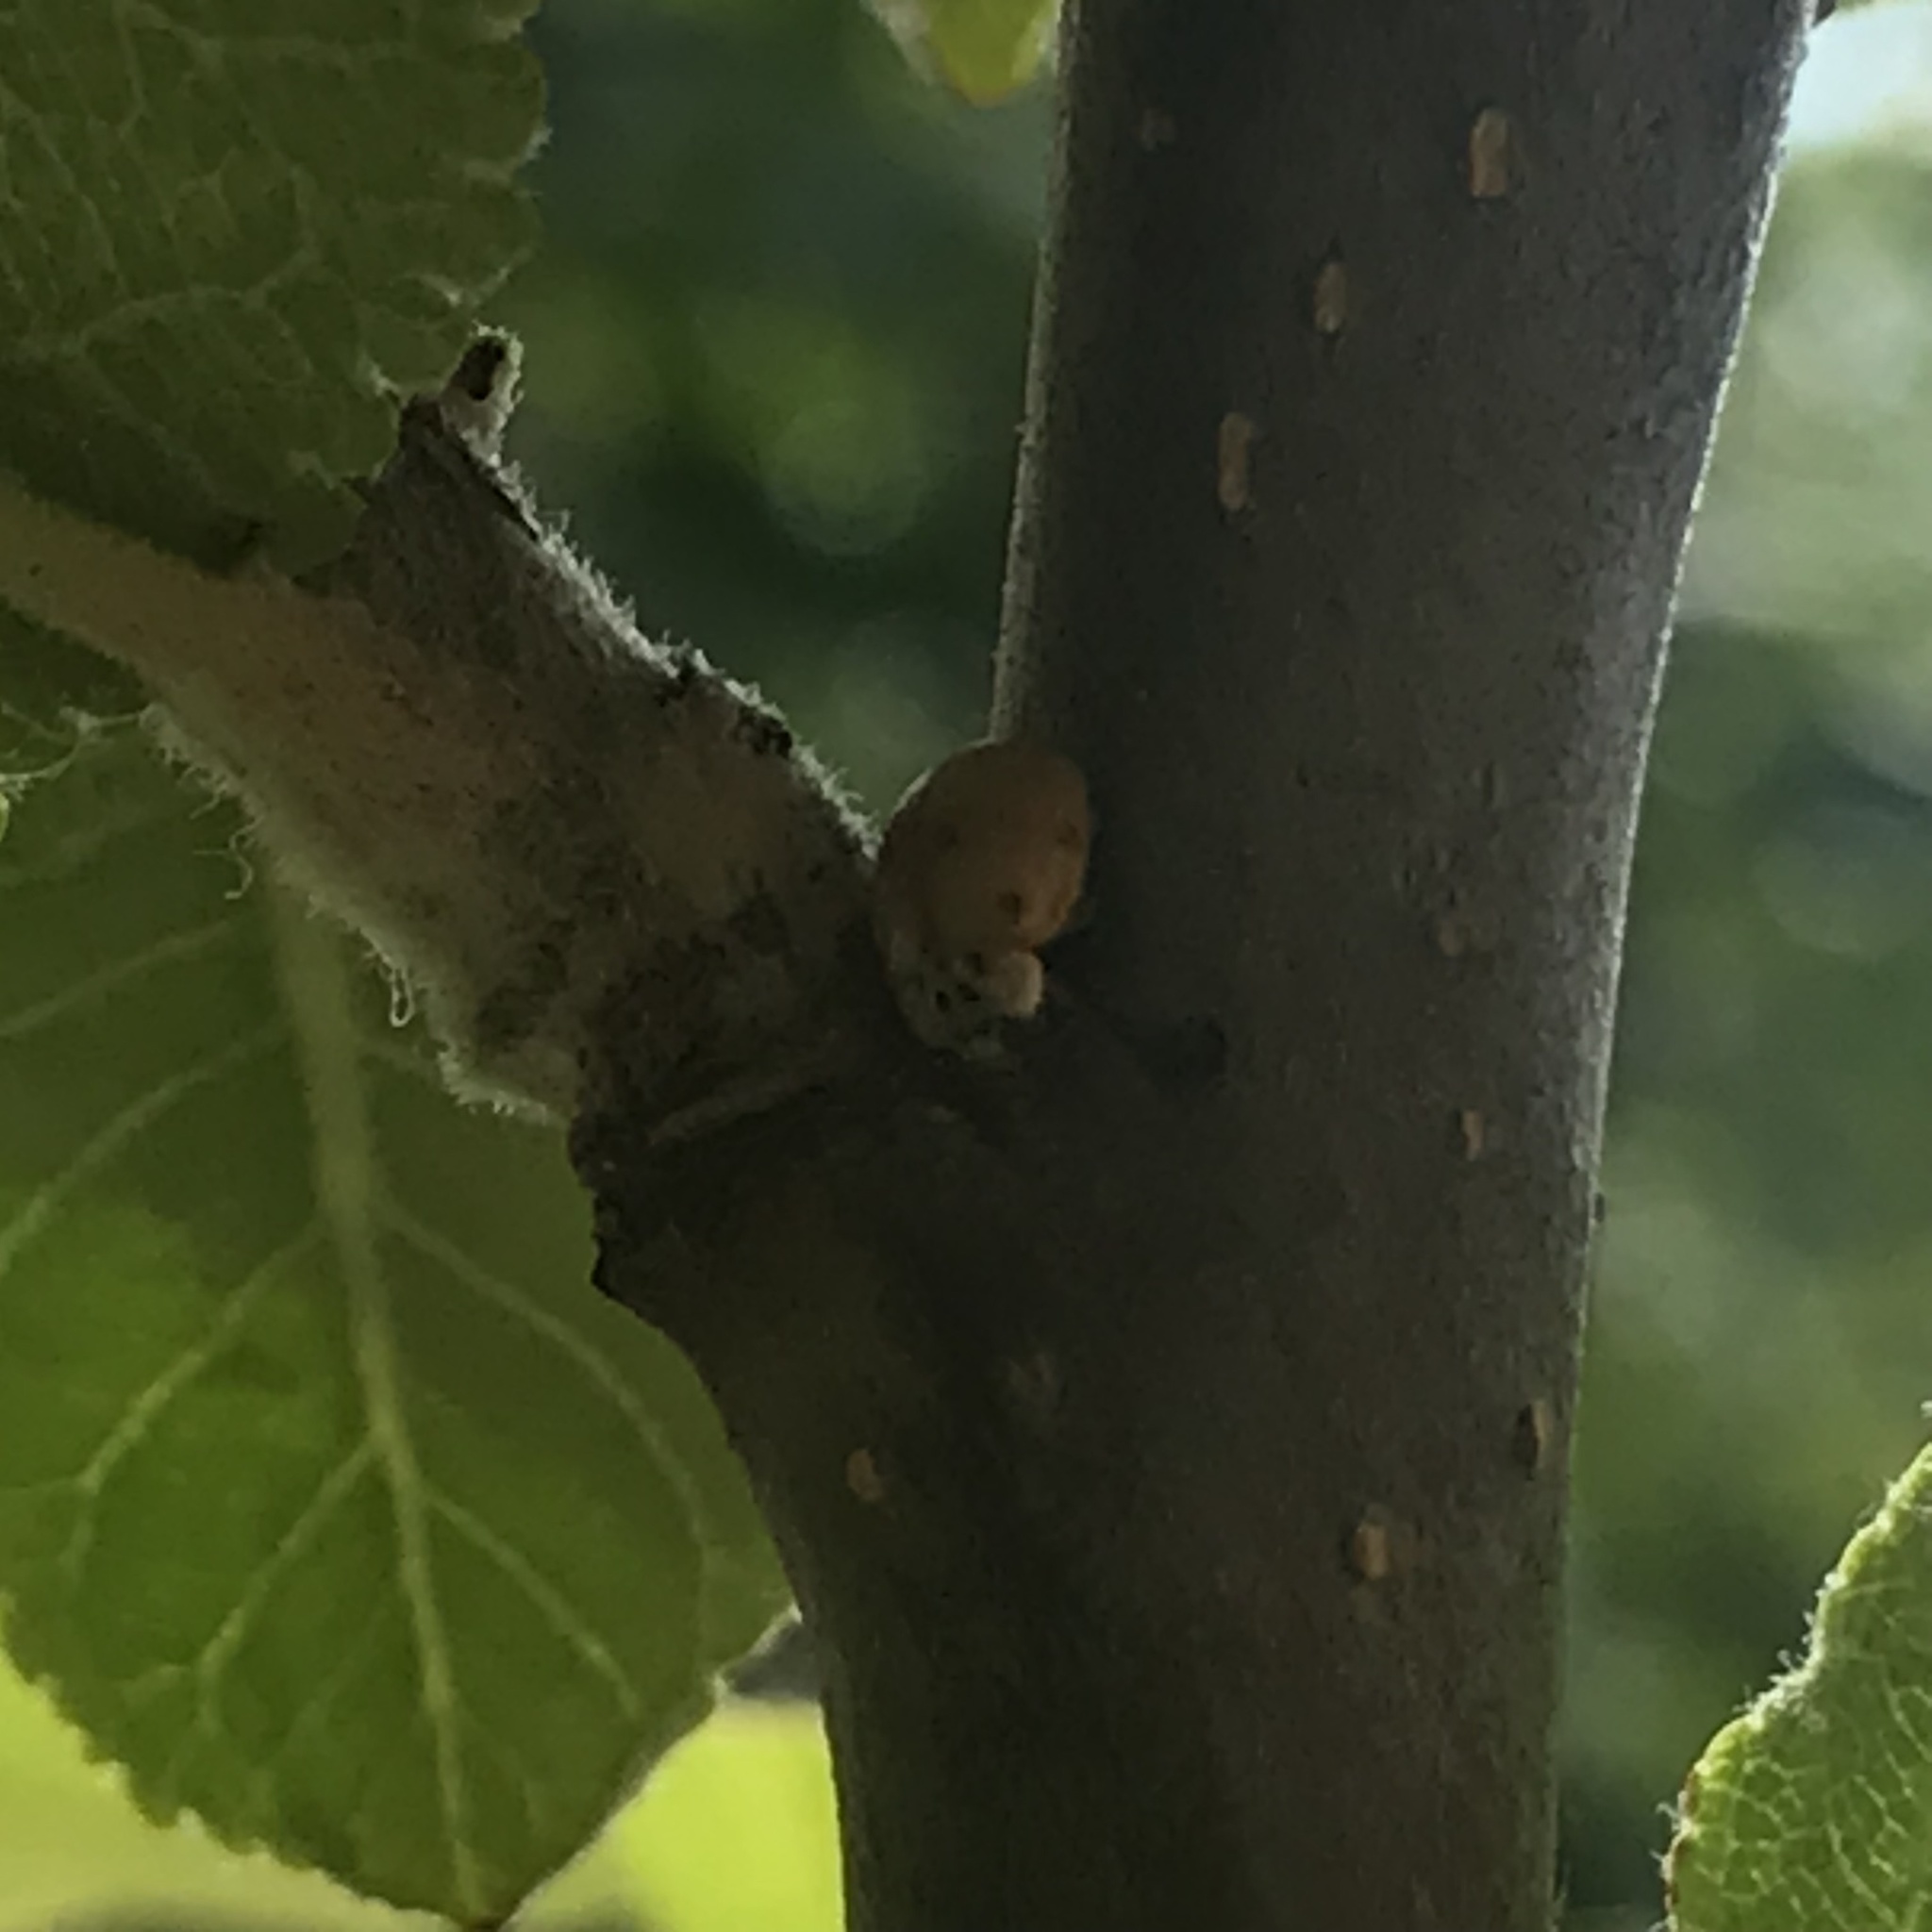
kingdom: Animalia
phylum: Arthropoda
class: Insecta
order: Coleoptera
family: Coccinellidae
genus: Adalia
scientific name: Adalia decempunctata
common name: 10-spot ladybird
